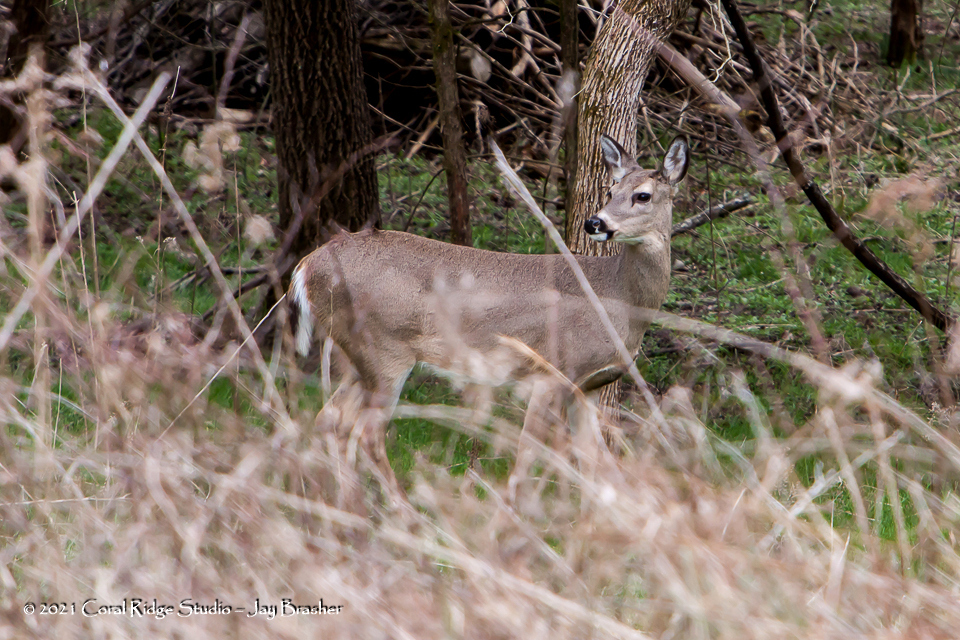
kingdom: Animalia
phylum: Chordata
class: Mammalia
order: Artiodactyla
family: Cervidae
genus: Odocoileus
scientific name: Odocoileus virginianus
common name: White-tailed deer
